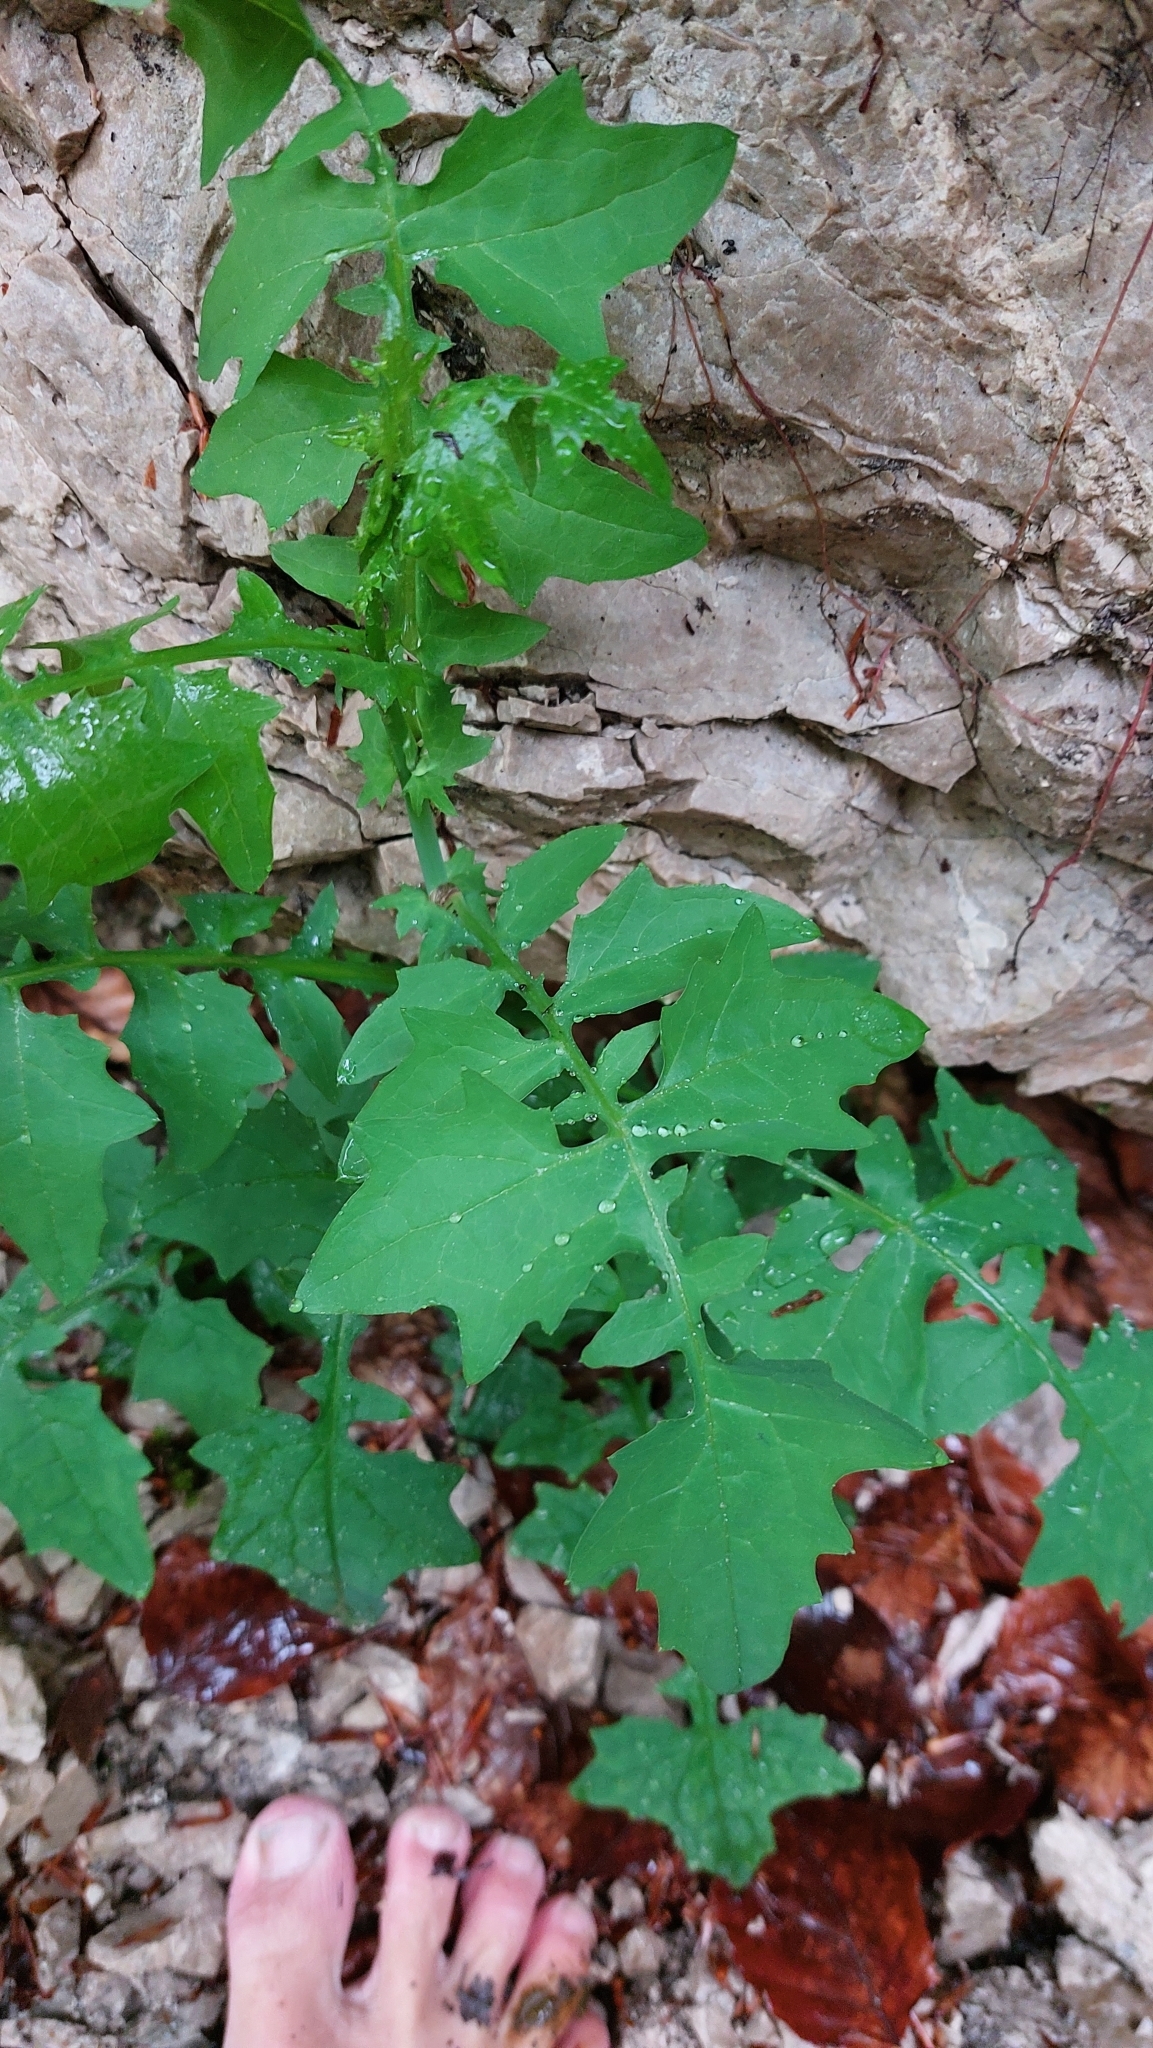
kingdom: Plantae
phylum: Tracheophyta
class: Magnoliopsida
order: Asterales
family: Asteraceae
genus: Mycelis
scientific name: Mycelis muralis
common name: Wall lettuce
